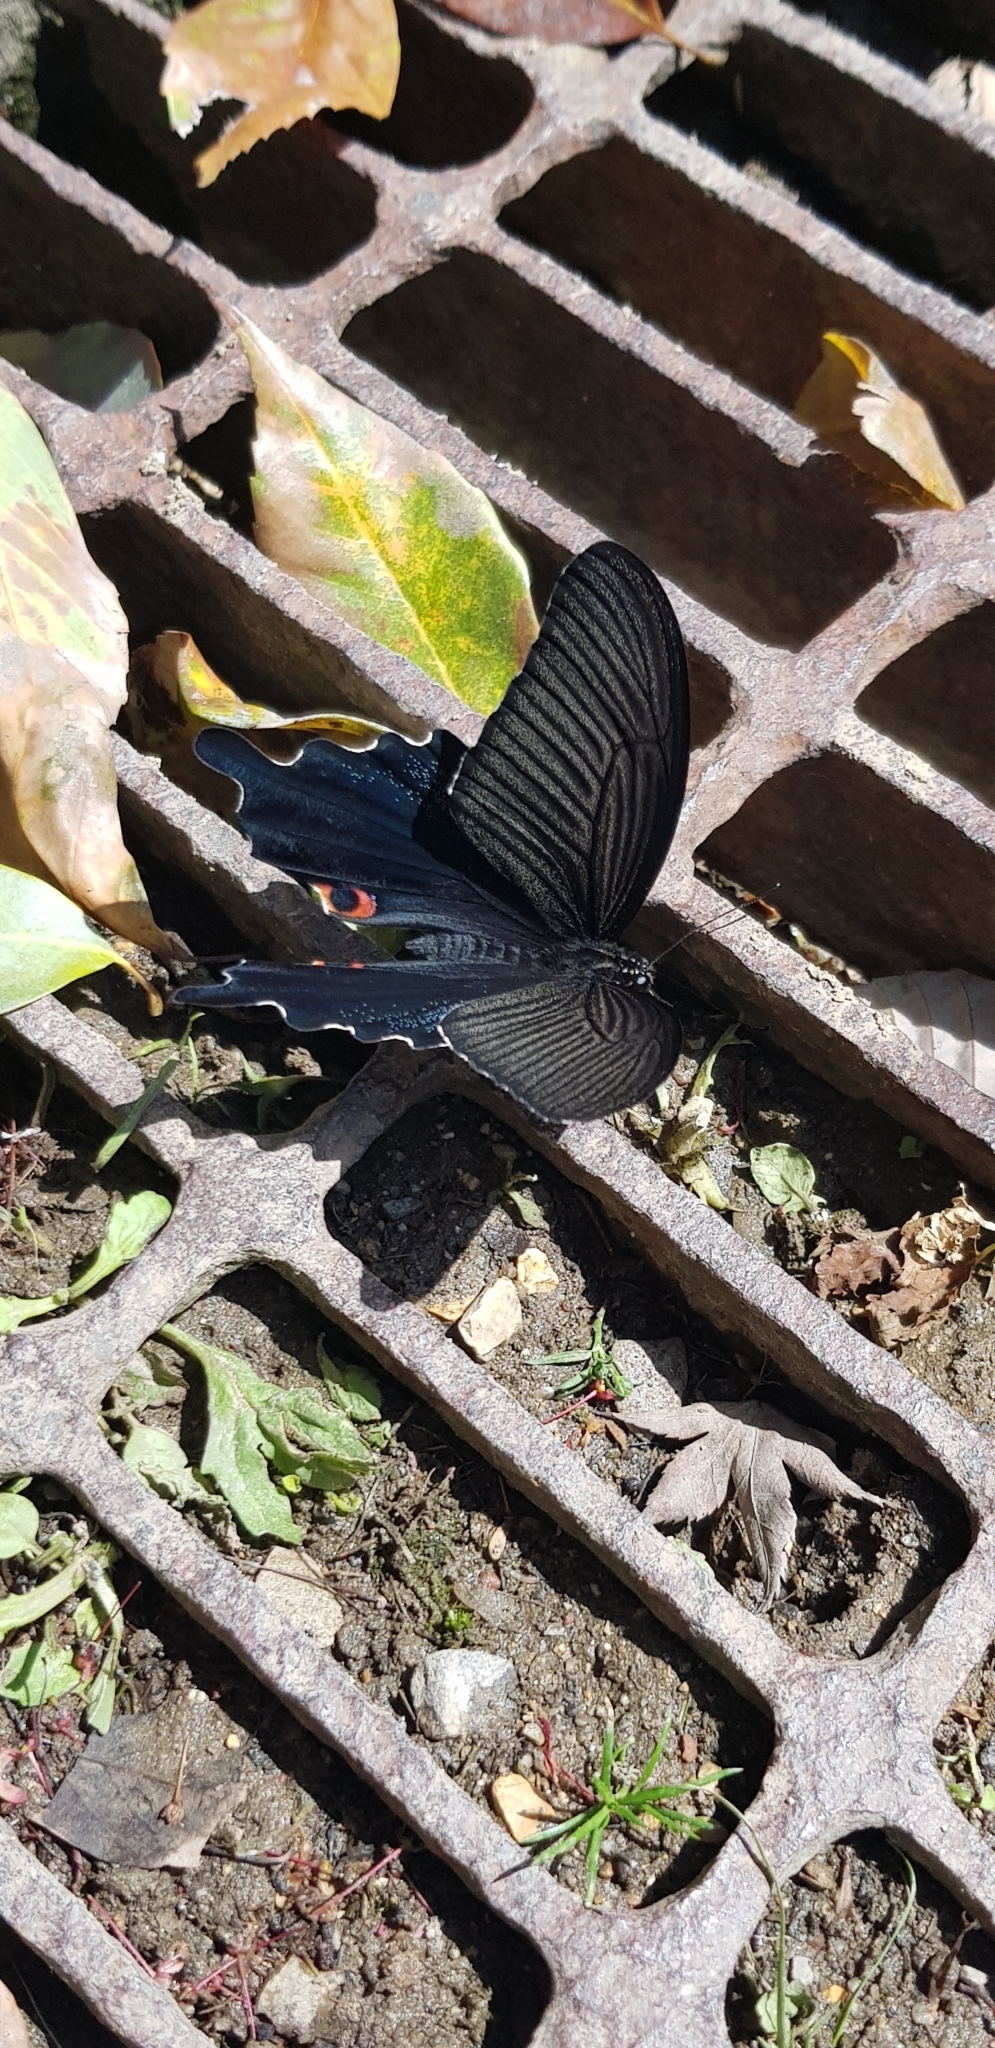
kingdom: Animalia
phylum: Arthropoda
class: Insecta
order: Lepidoptera
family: Papilionidae
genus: Papilio
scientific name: Papilio demetrius
